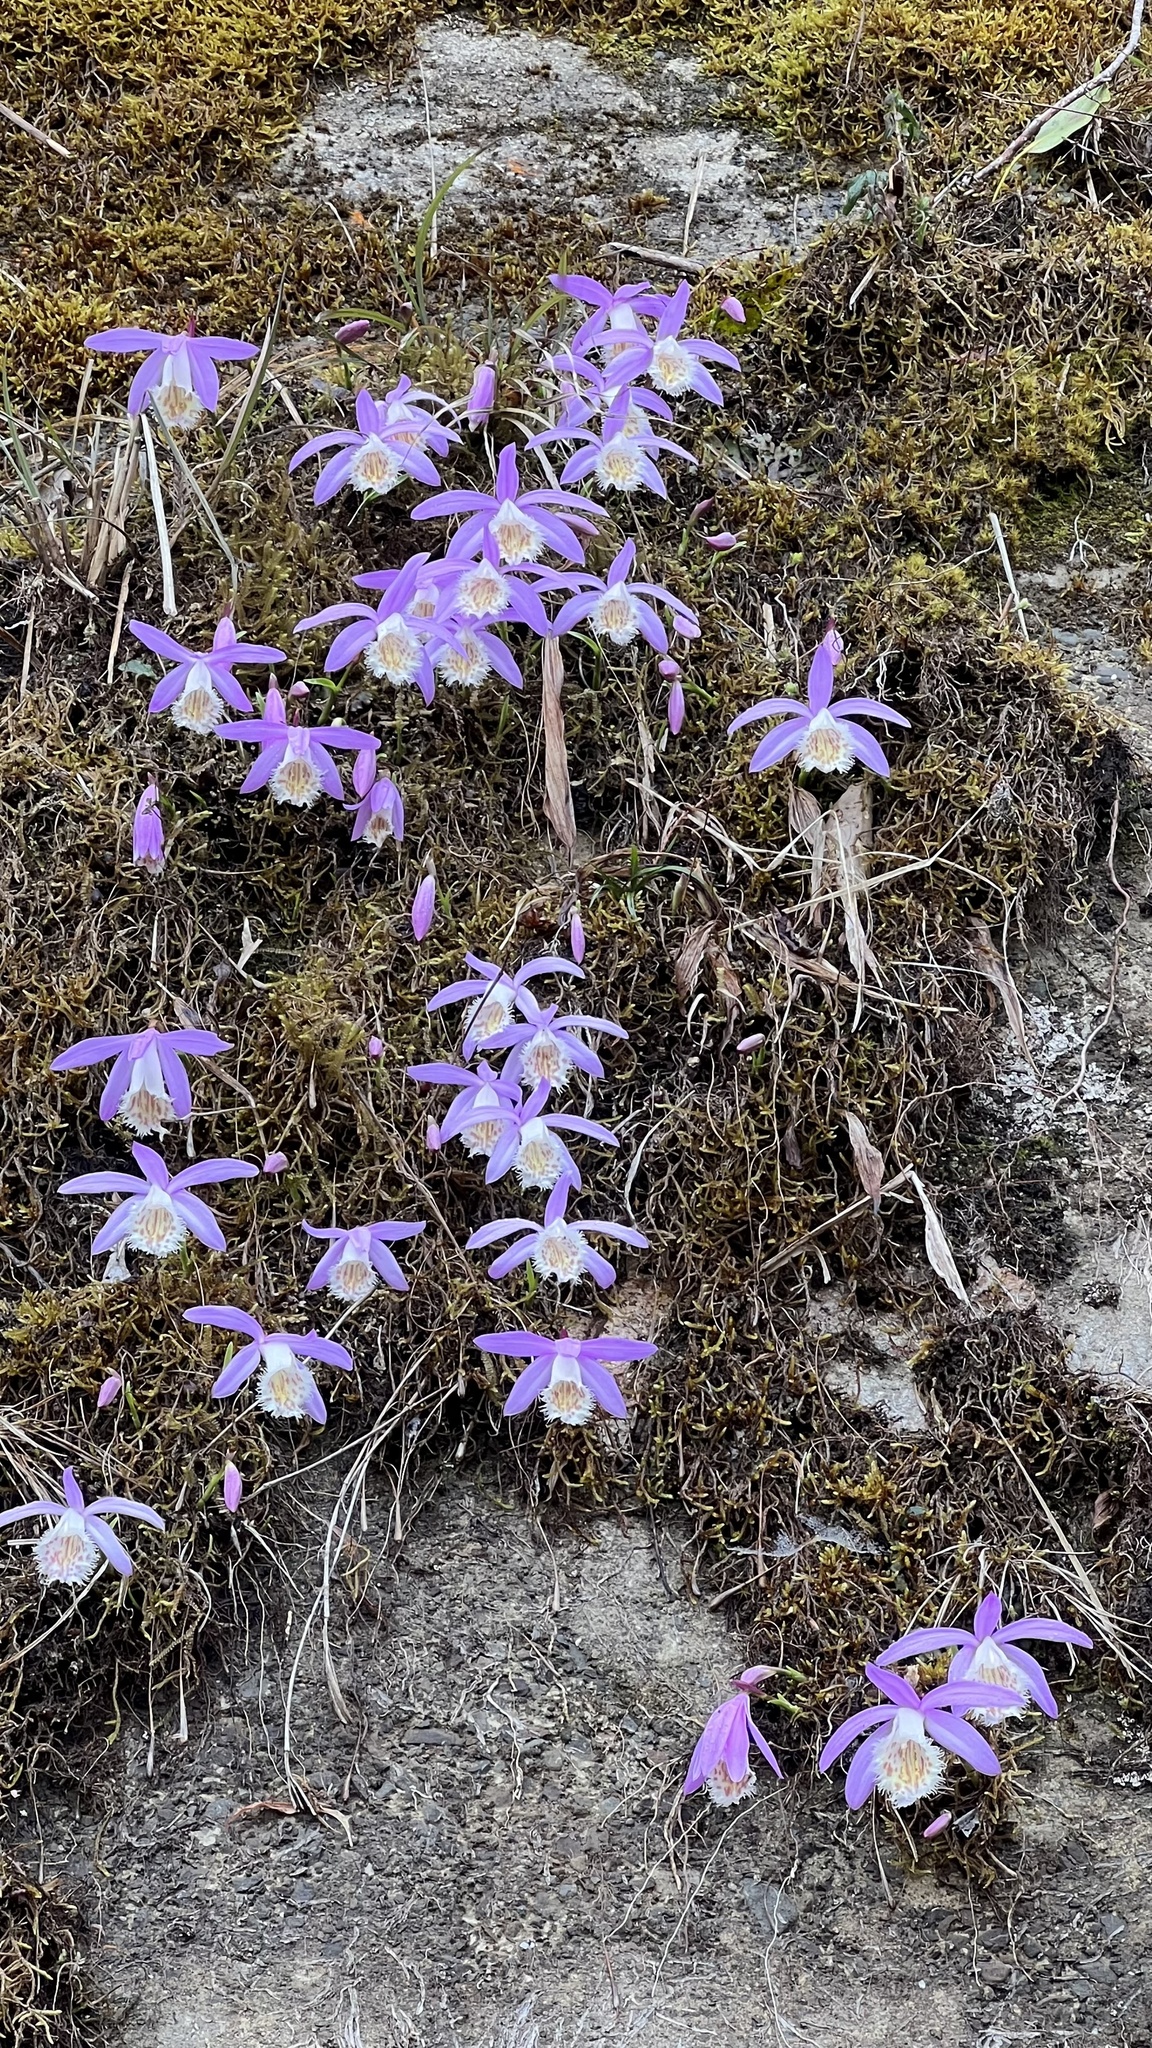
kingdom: Plantae
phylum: Tracheophyta
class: Liliopsida
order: Asparagales
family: Orchidaceae
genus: Pleione
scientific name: Pleione formosana
